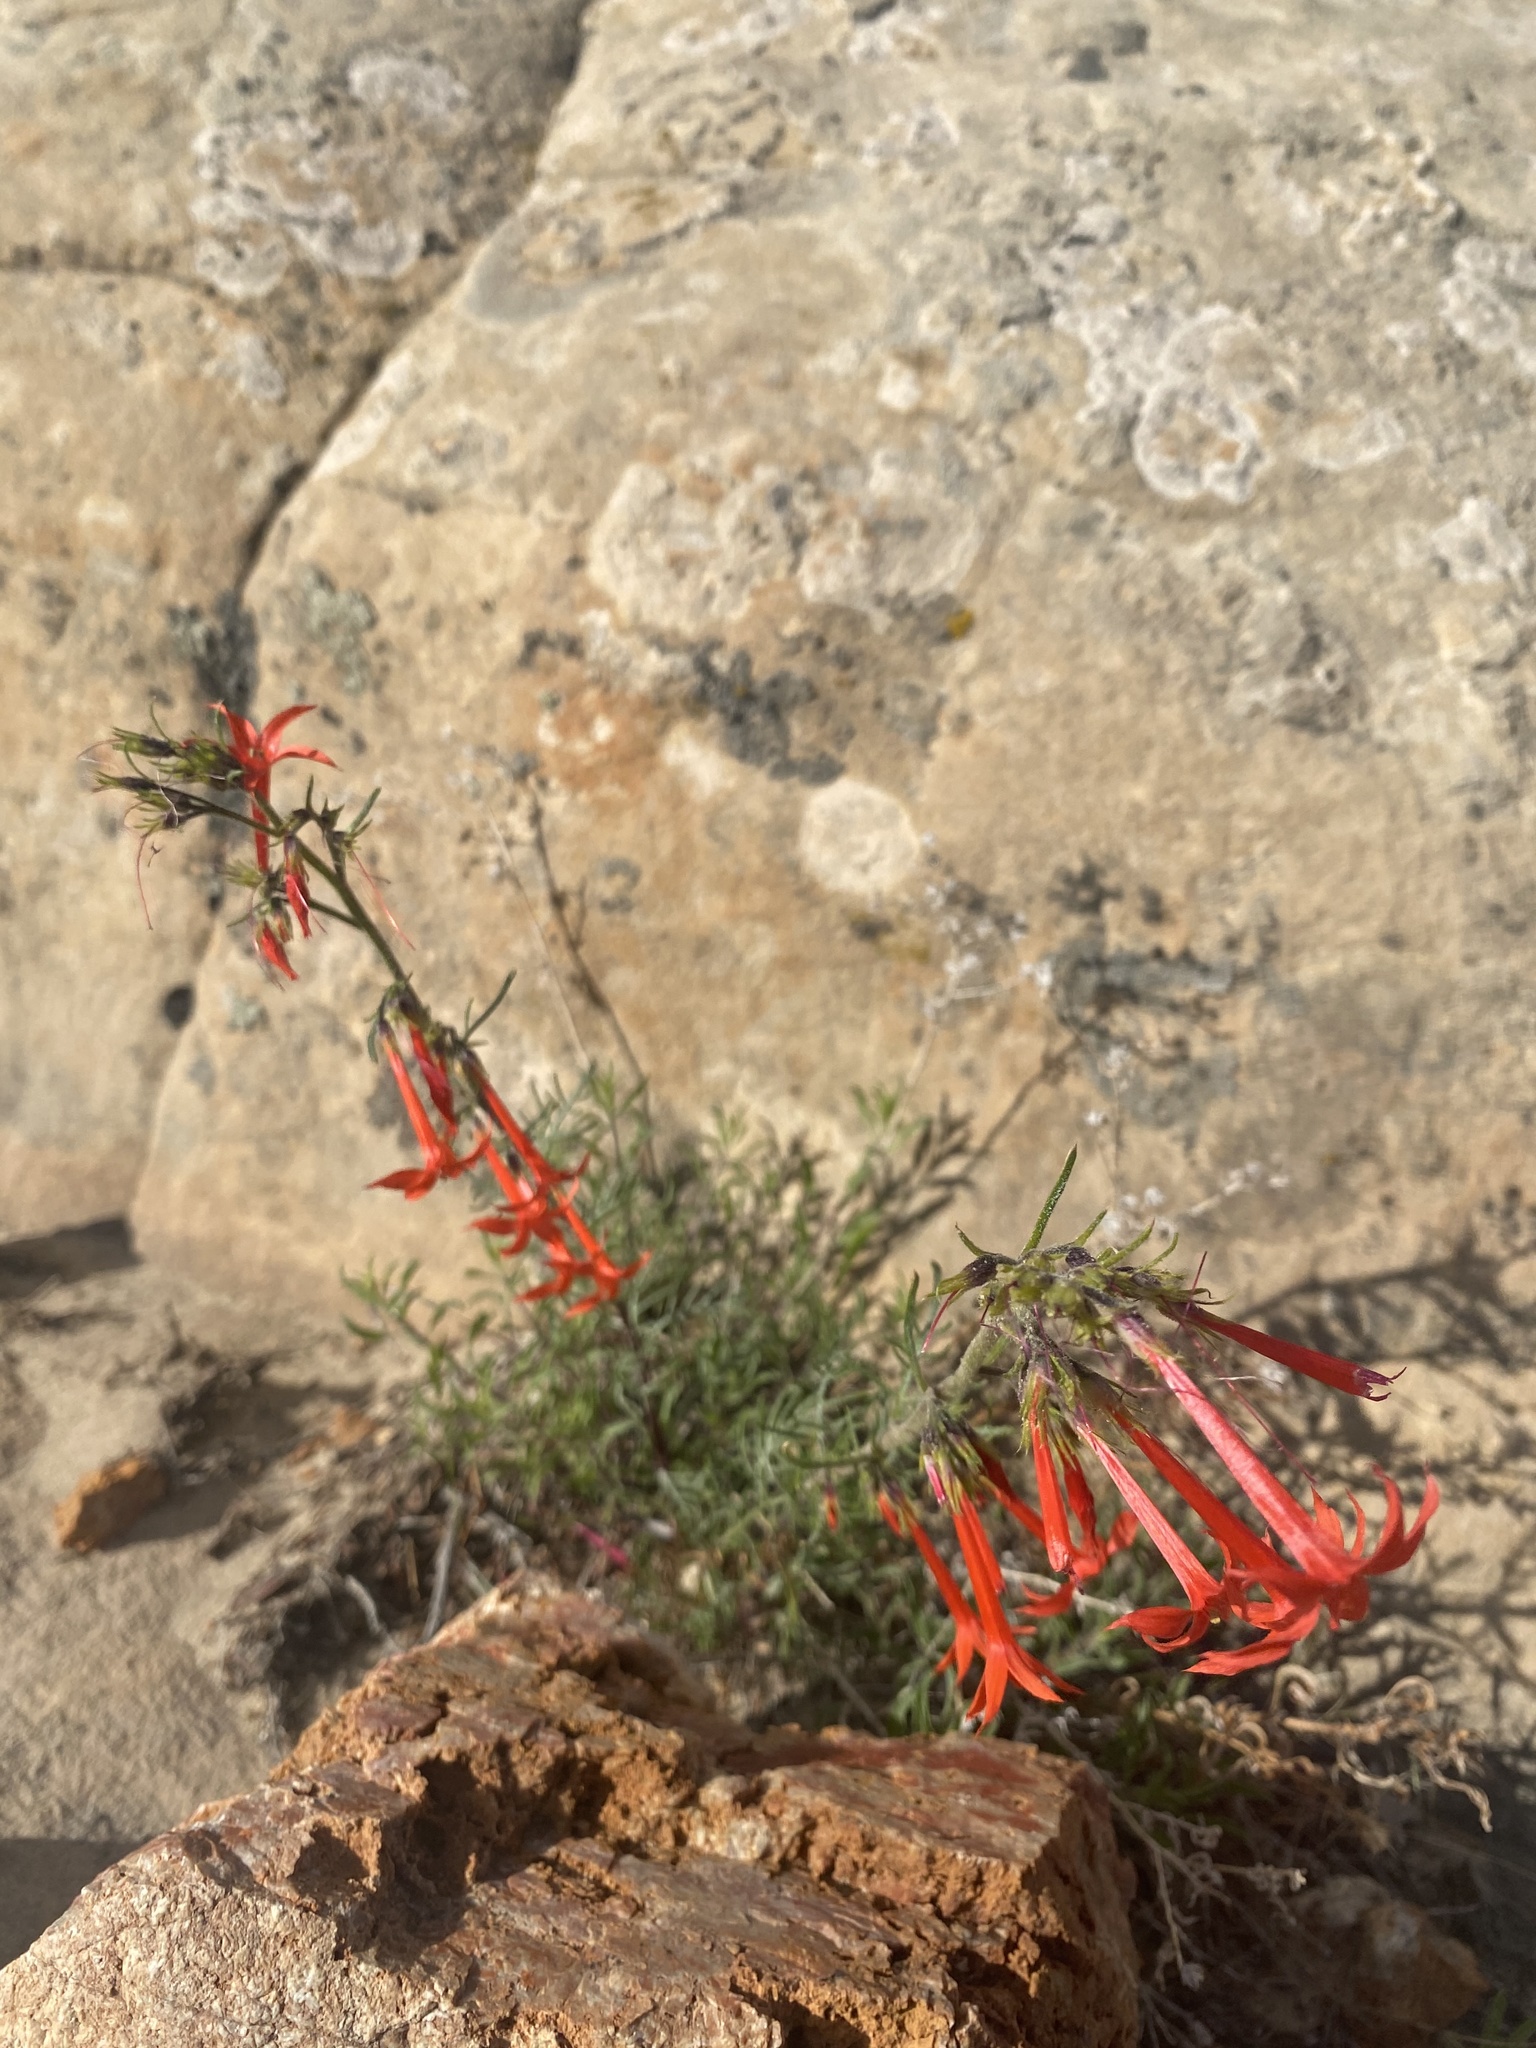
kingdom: Plantae
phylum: Tracheophyta
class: Magnoliopsida
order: Ericales
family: Polemoniaceae
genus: Ipomopsis
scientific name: Ipomopsis aggregata
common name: Scarlet gilia
